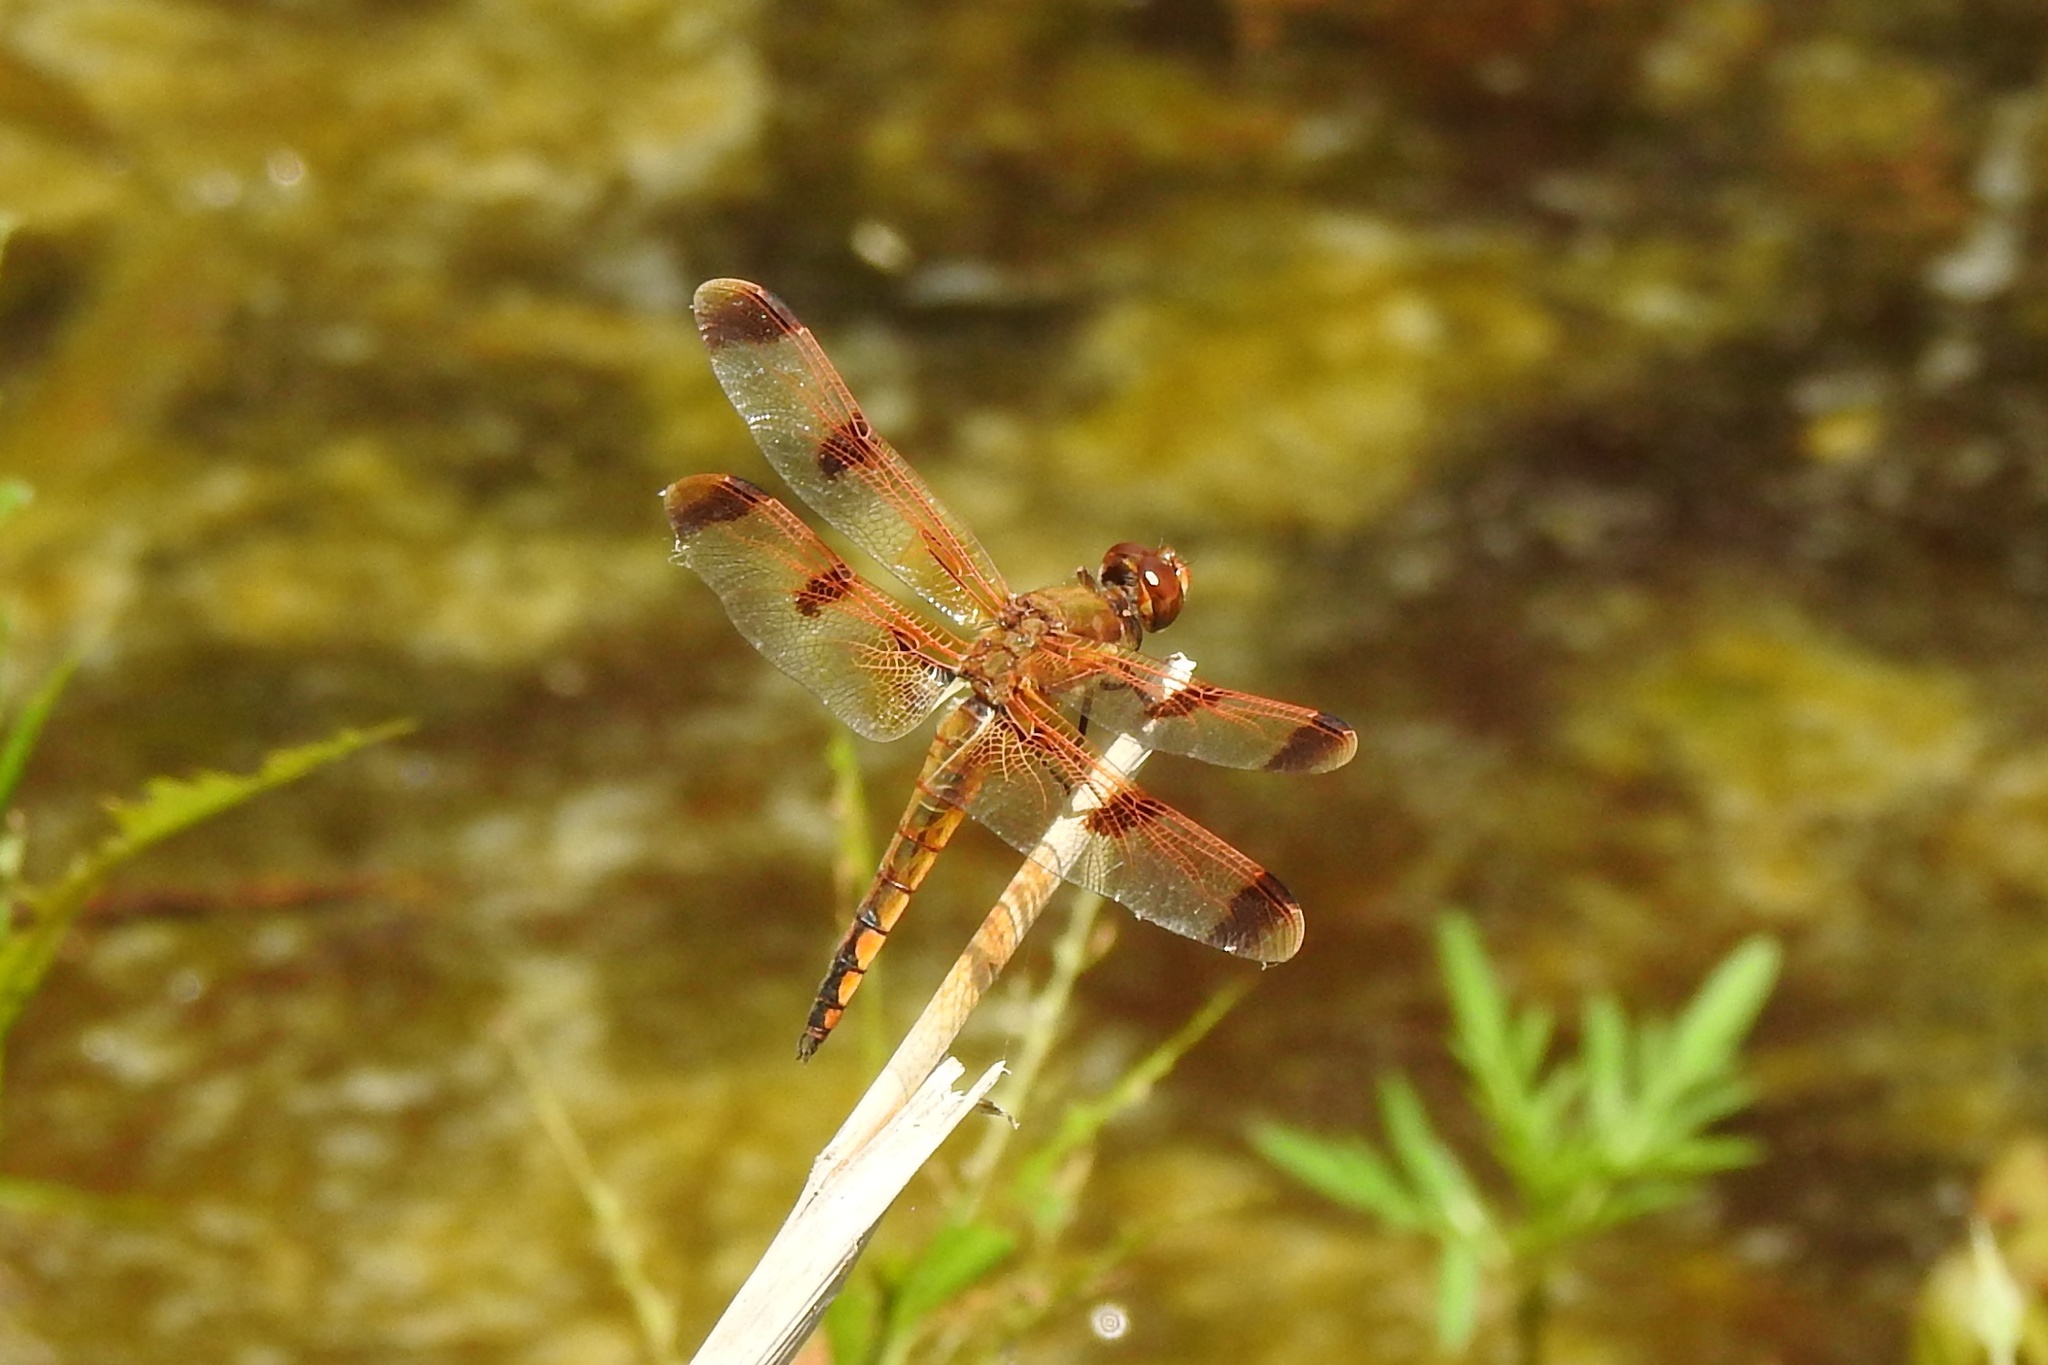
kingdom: Animalia
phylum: Arthropoda
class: Insecta
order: Odonata
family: Libellulidae
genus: Libellula
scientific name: Libellula semifasciata
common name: Painted skimmer
